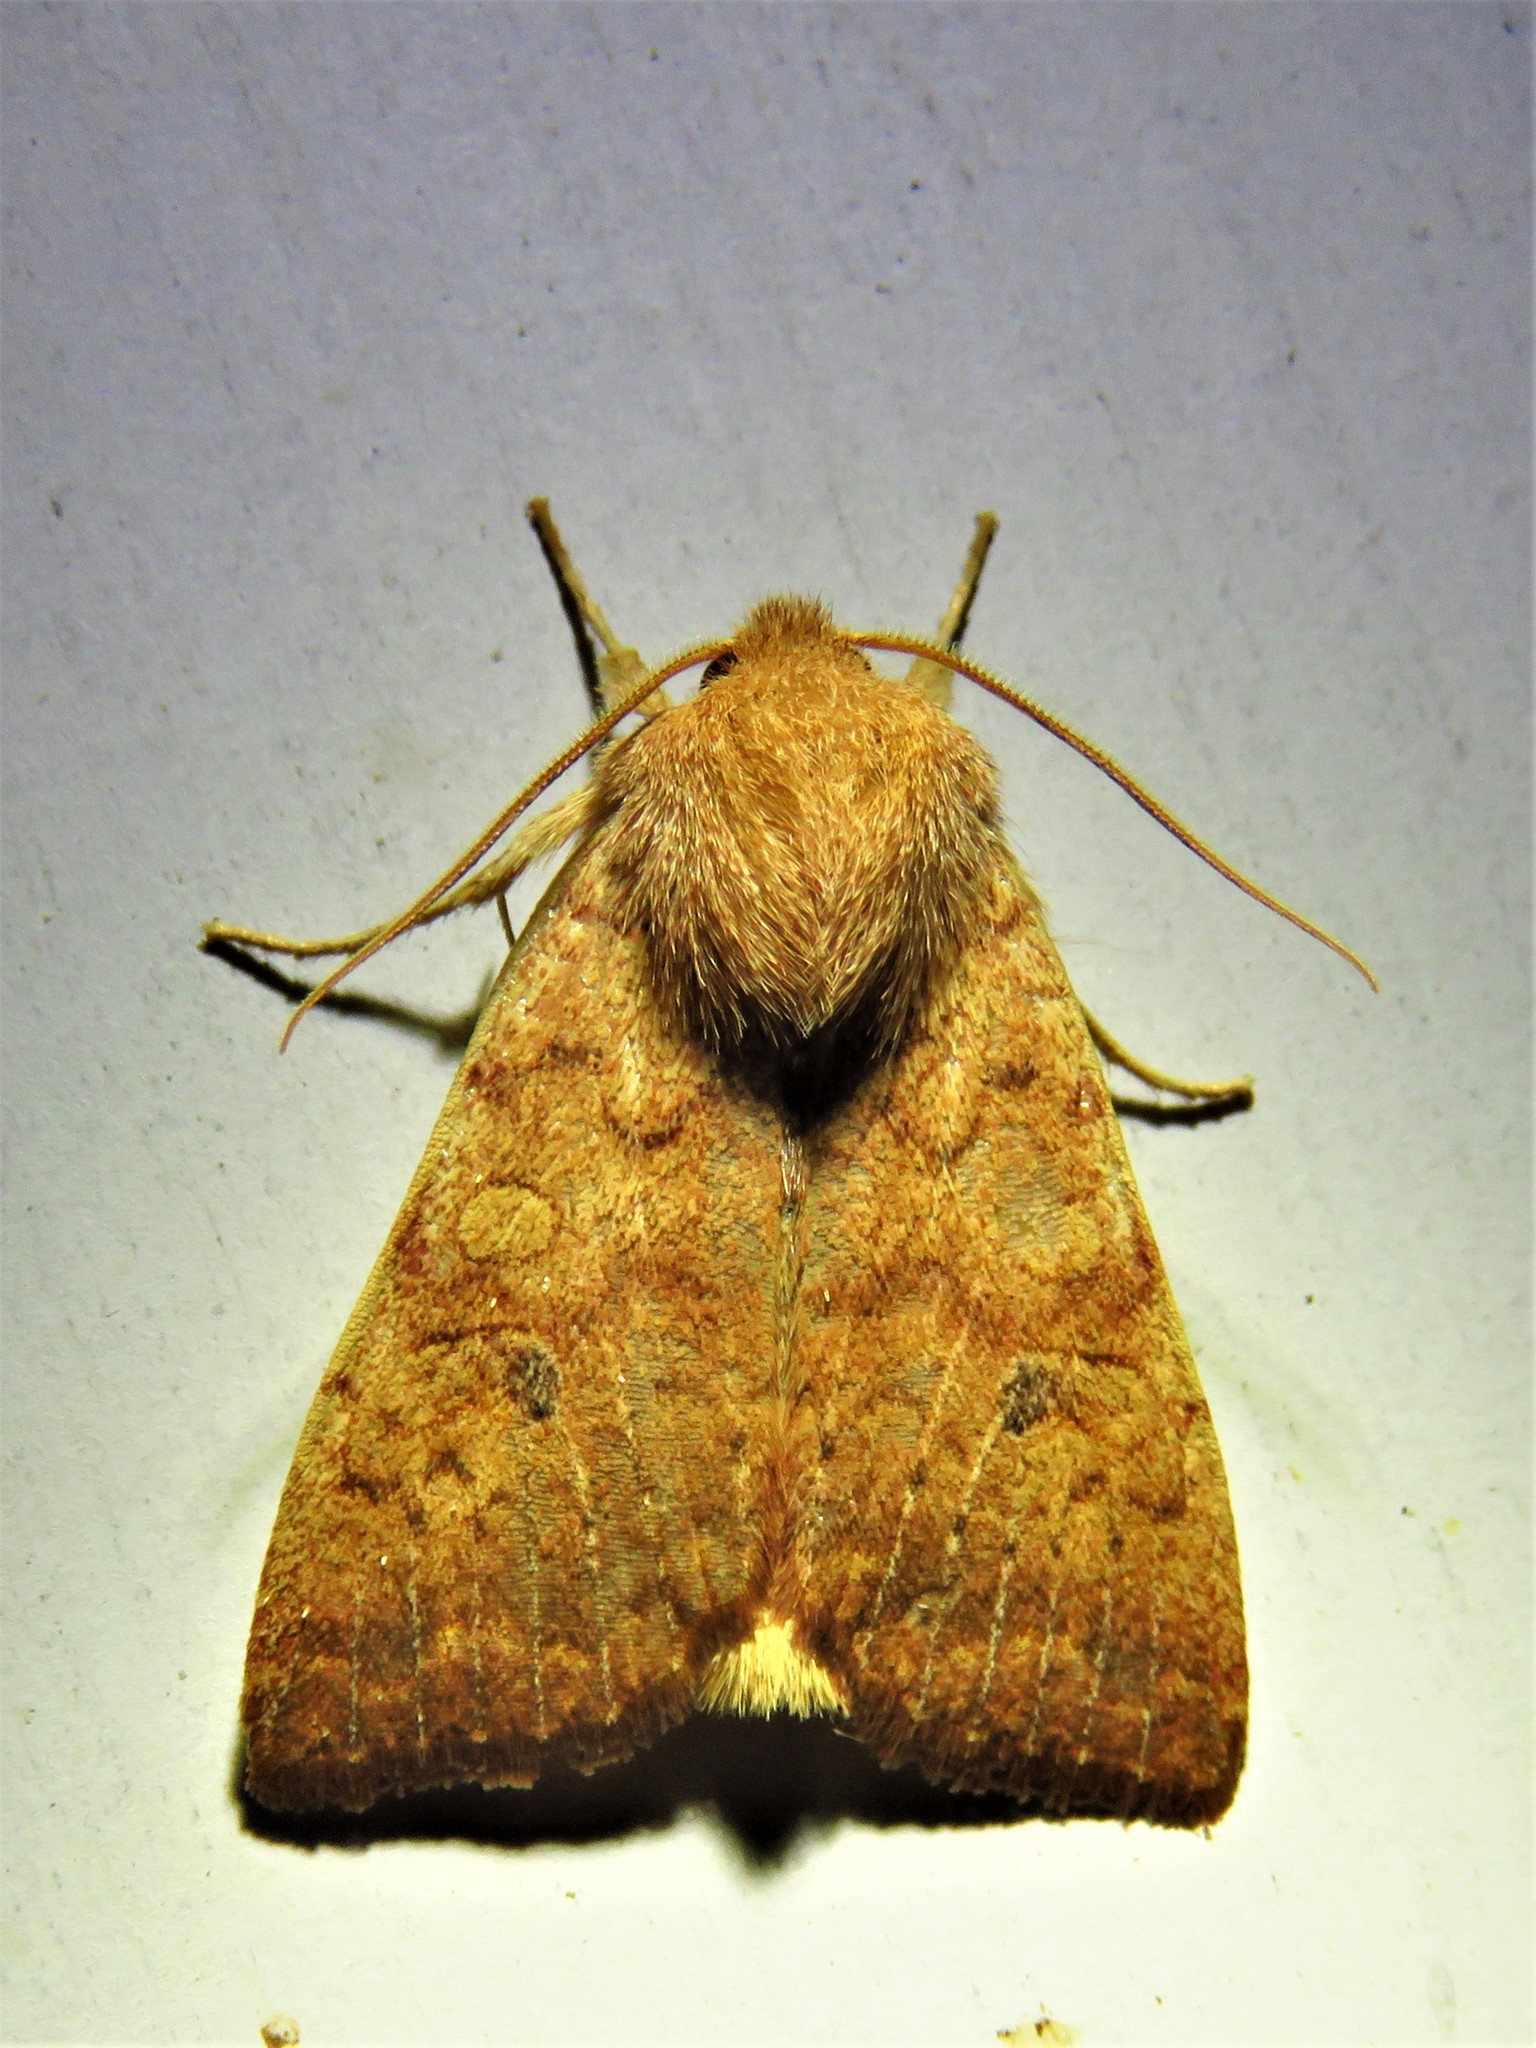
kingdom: Animalia
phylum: Arthropoda
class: Insecta
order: Lepidoptera
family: Noctuidae
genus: Agrochola
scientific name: Agrochola bicolorago
